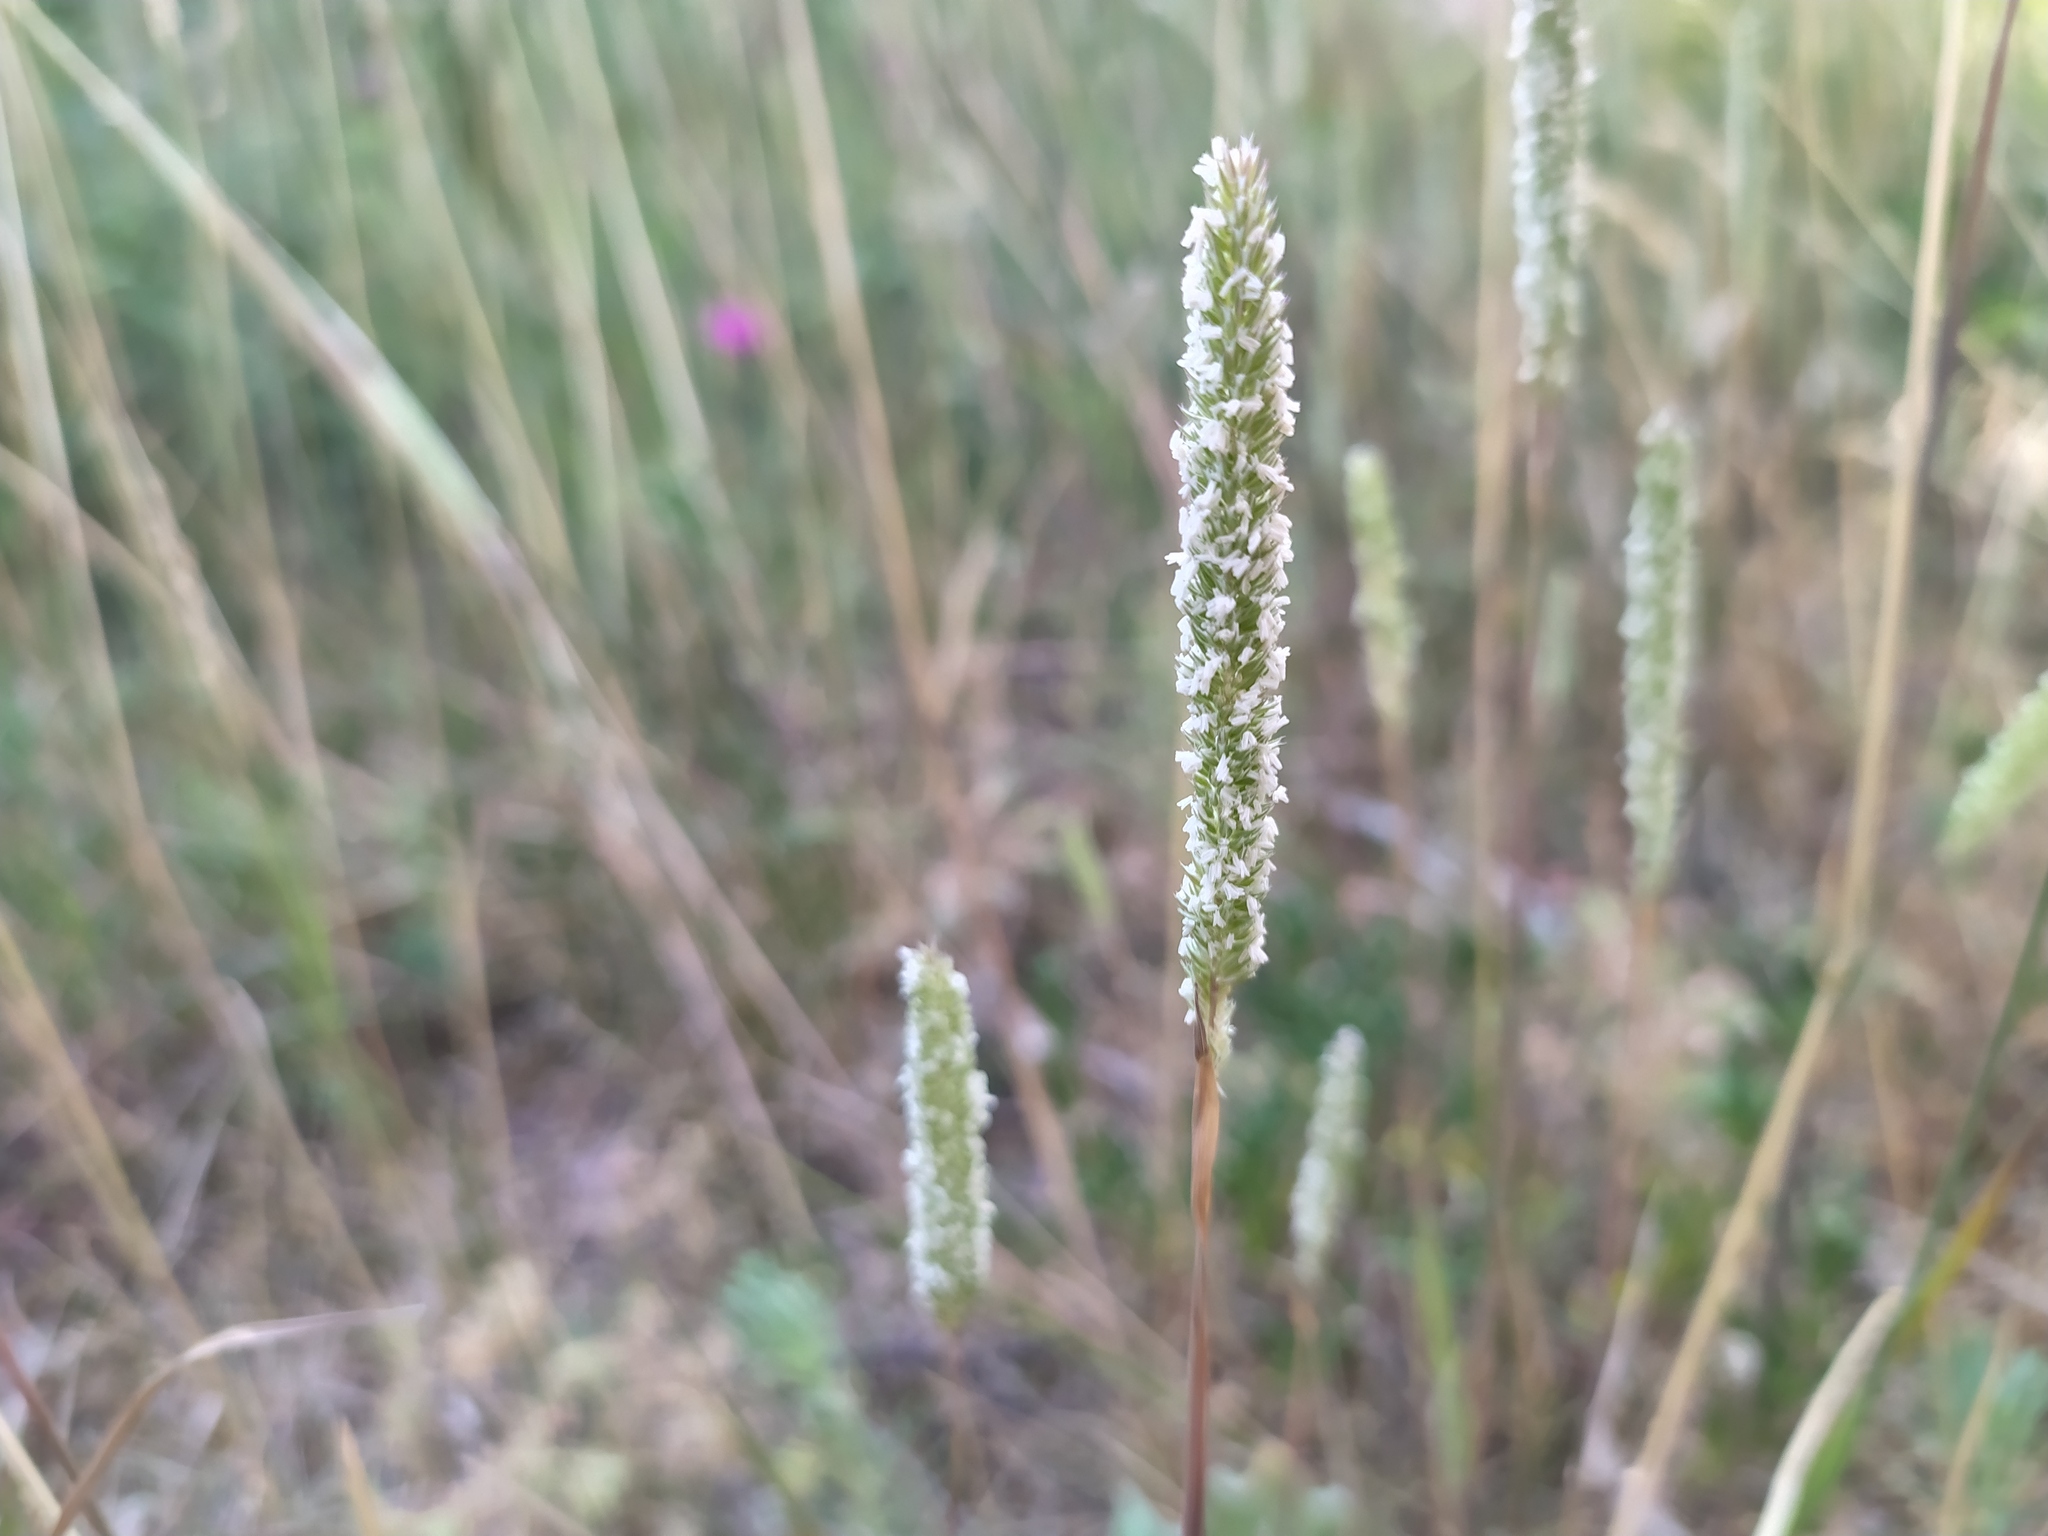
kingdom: Plantae
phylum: Tracheophyta
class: Liliopsida
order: Poales
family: Poaceae
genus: Phleum
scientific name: Phleum phleoides
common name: Purple-stem cat's-tail
